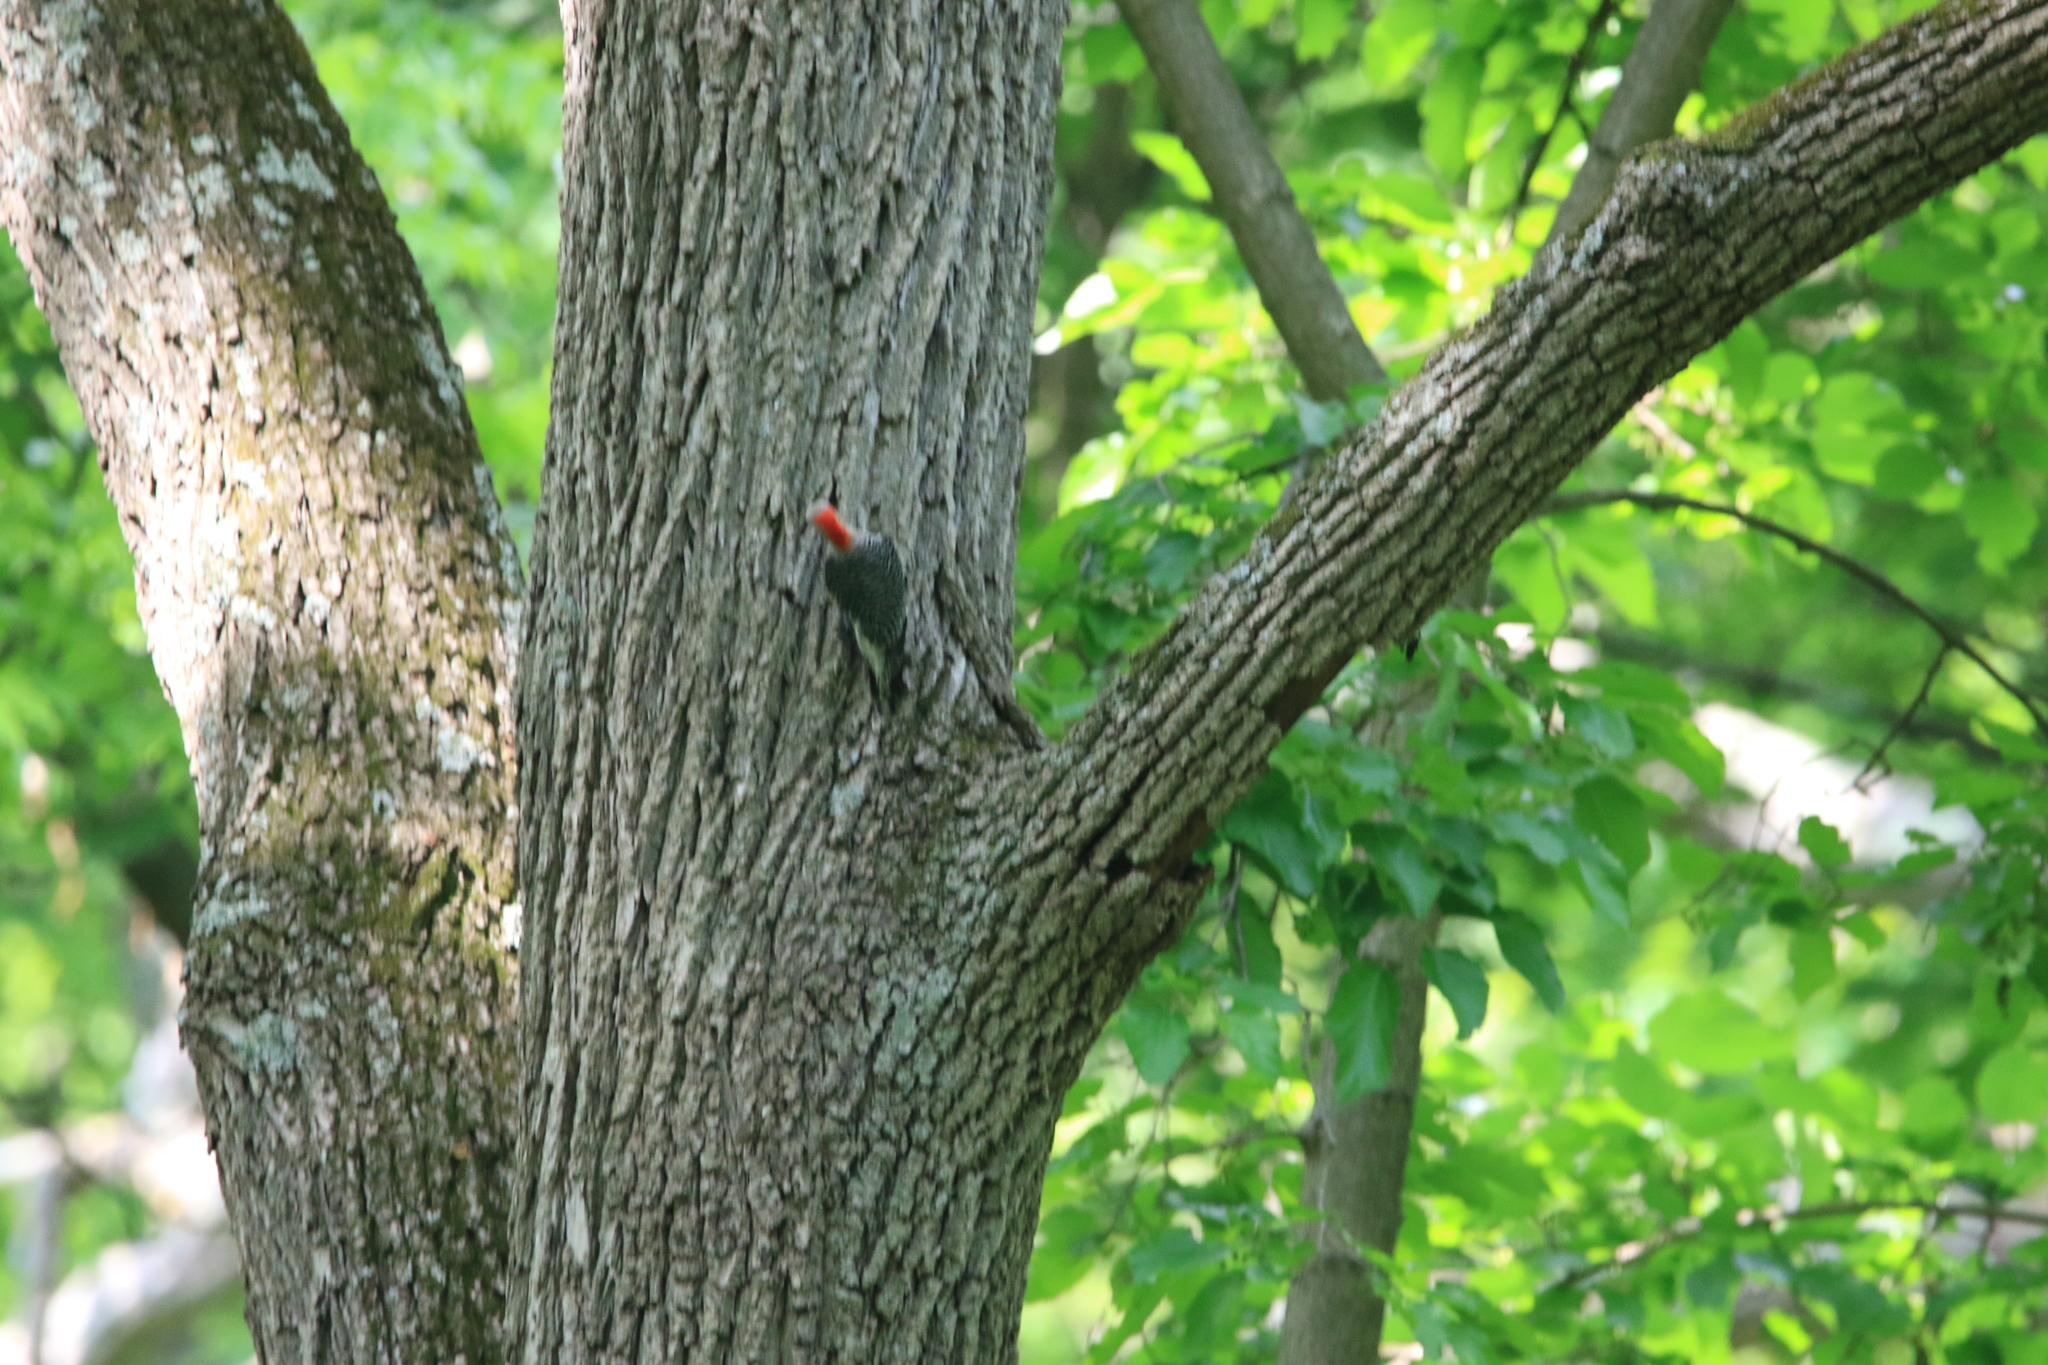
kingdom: Animalia
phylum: Chordata
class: Aves
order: Piciformes
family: Picidae
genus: Melanerpes
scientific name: Melanerpes carolinus
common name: Red-bellied woodpecker
